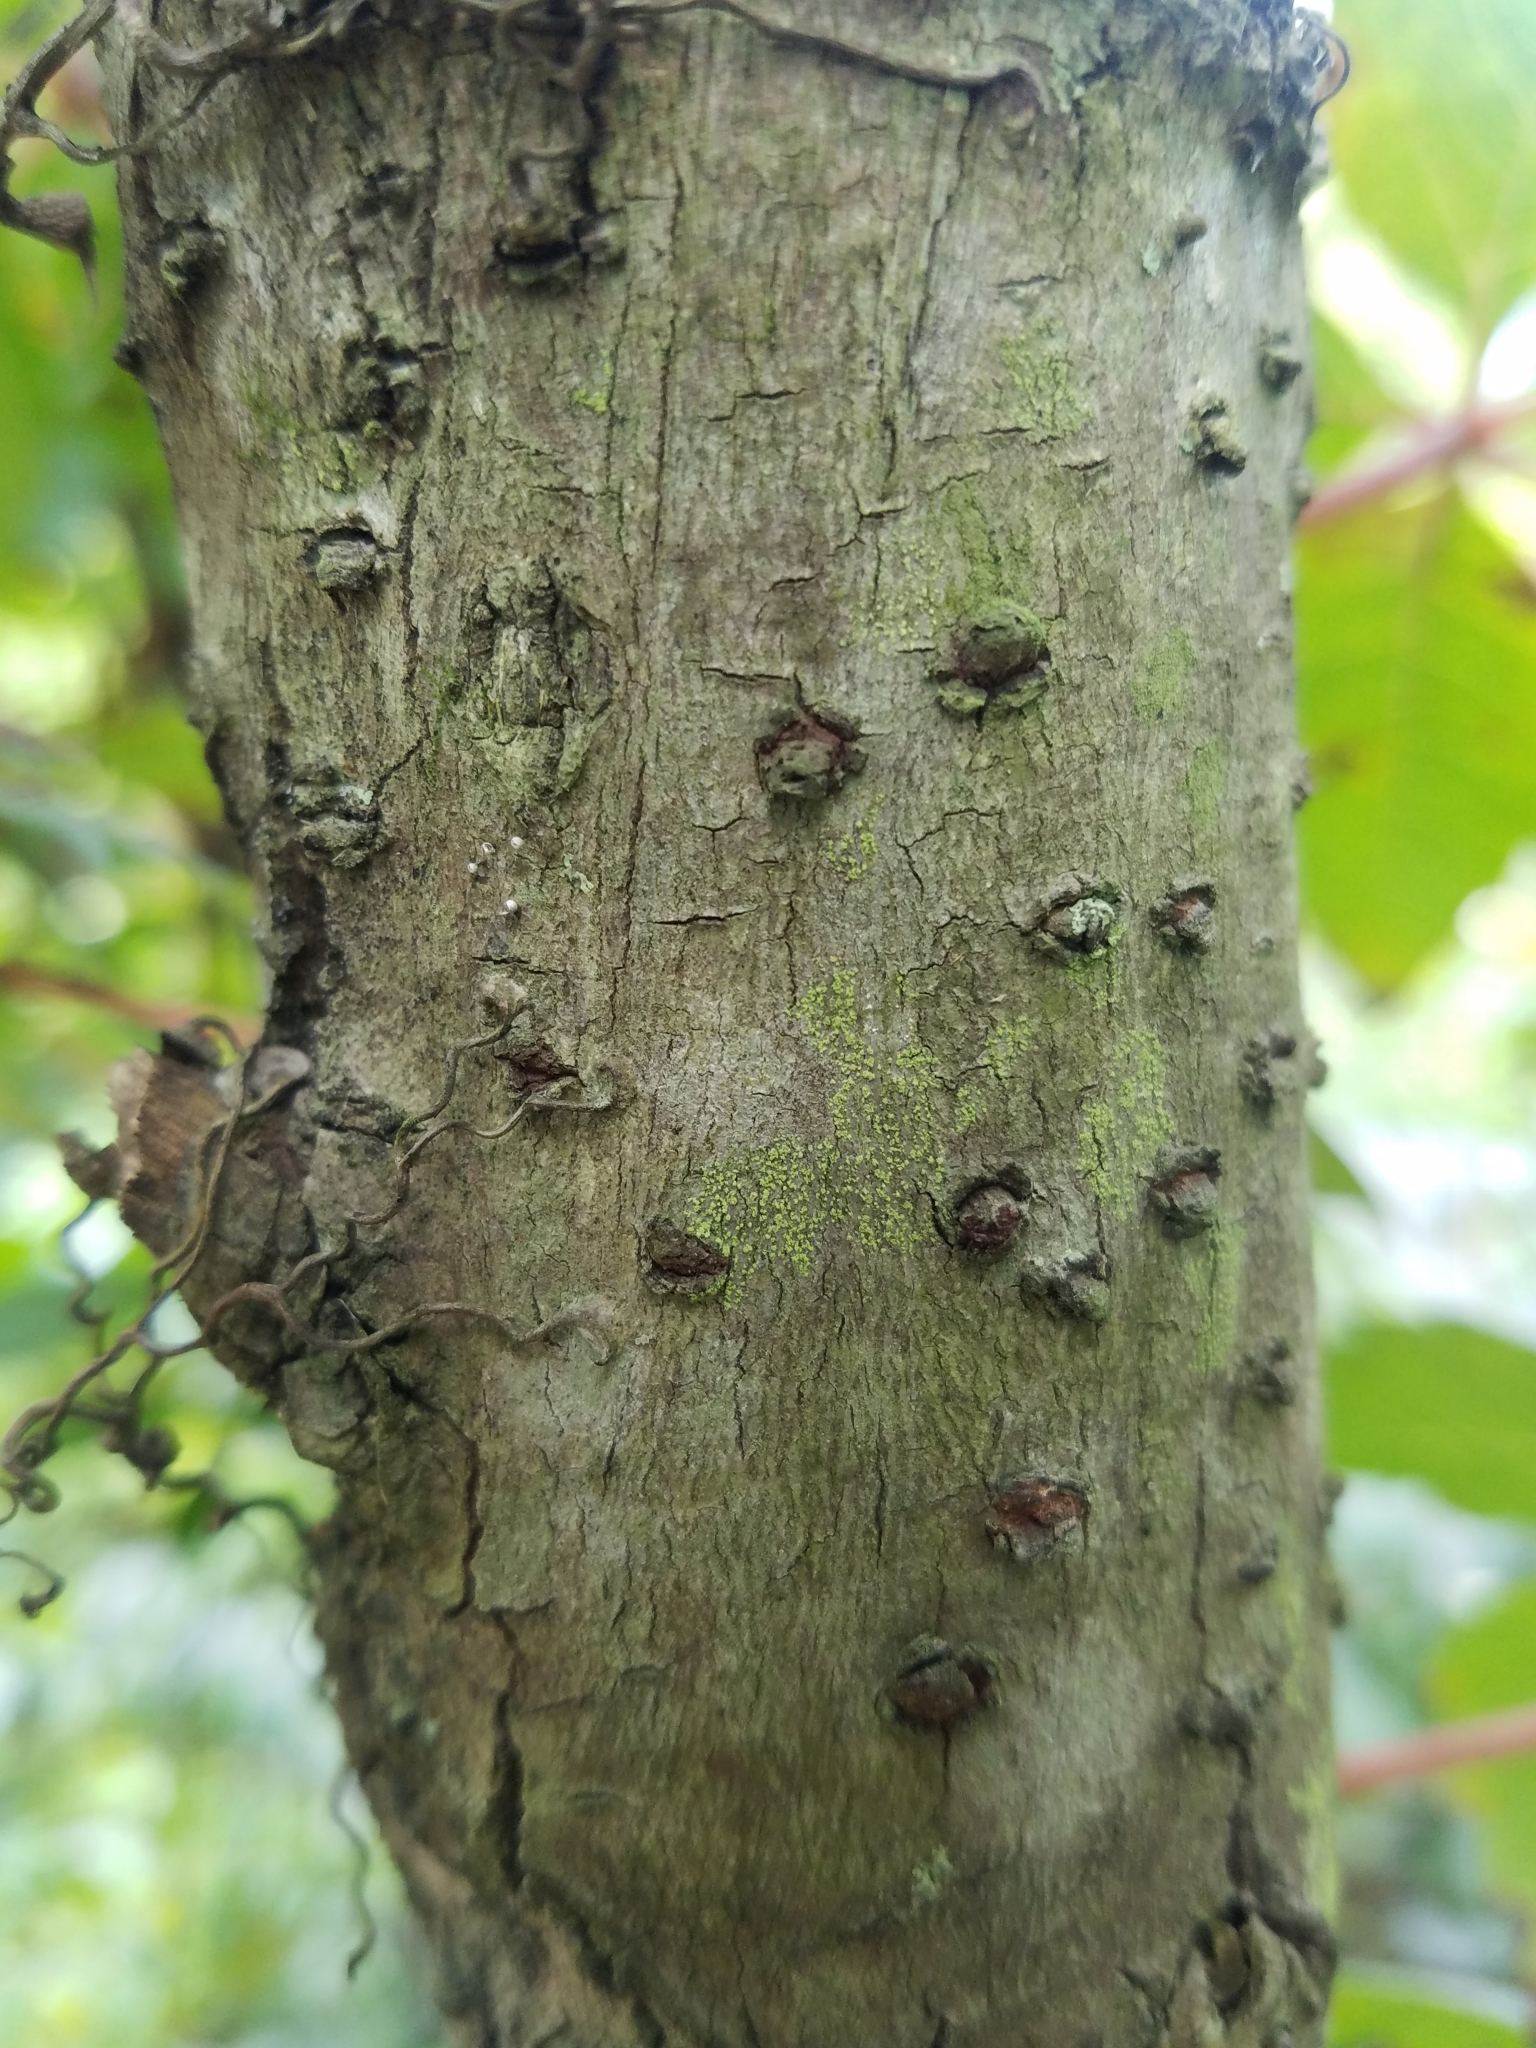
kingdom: Plantae
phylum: Tracheophyta
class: Magnoliopsida
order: Dipsacales
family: Viburnaceae
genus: Sambucus
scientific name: Sambucus canadensis
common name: American elder
